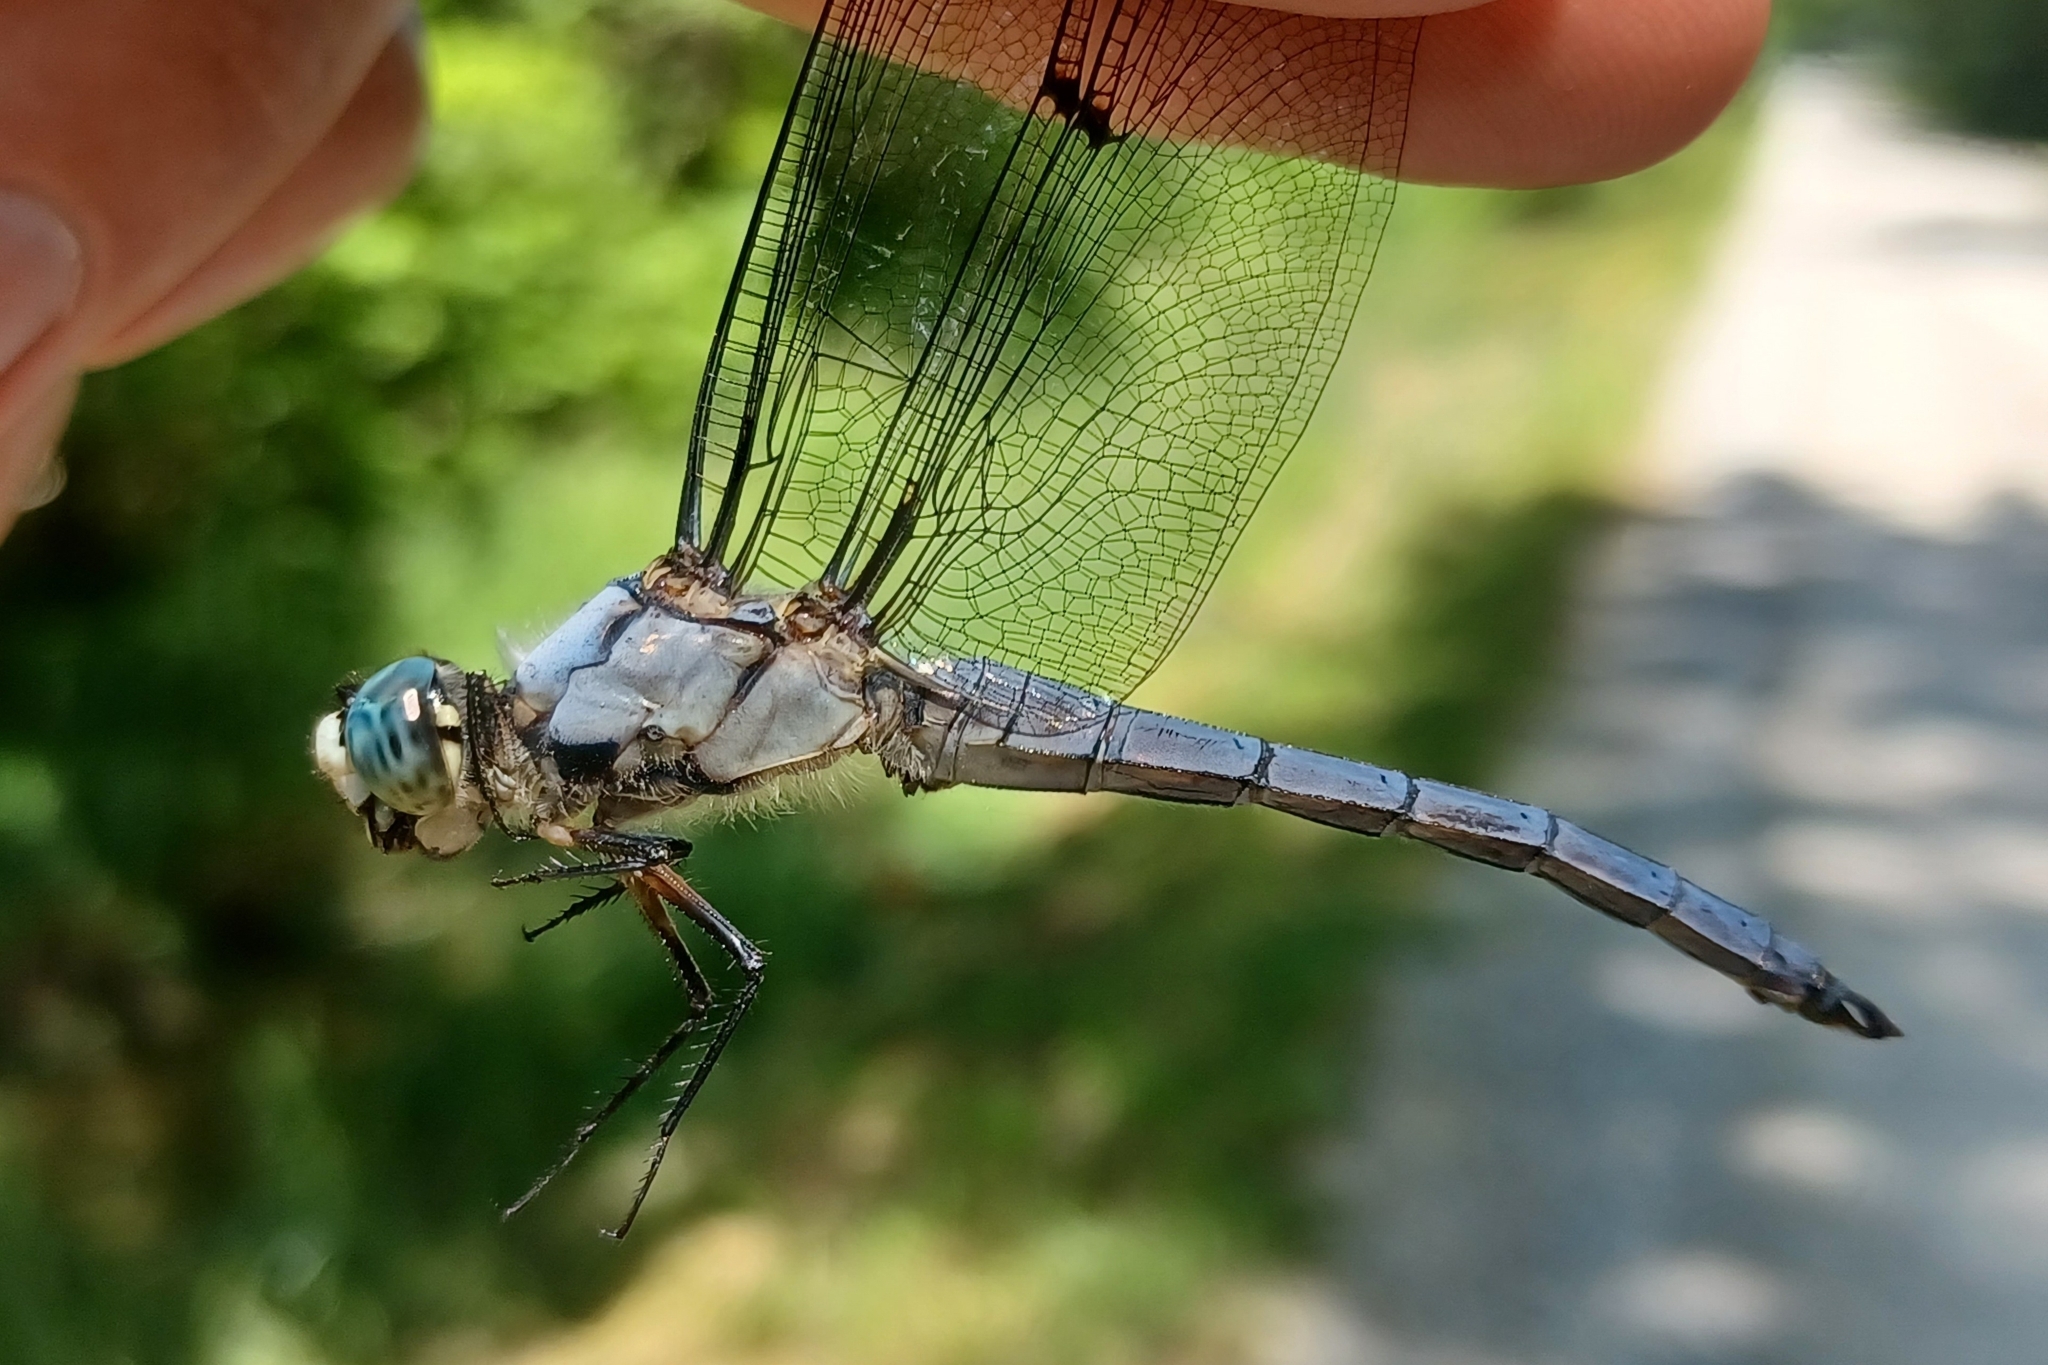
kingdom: Animalia
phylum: Arthropoda
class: Insecta
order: Odonata
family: Libellulidae
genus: Libellula
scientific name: Libellula vibrans
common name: Great blue skimmer
